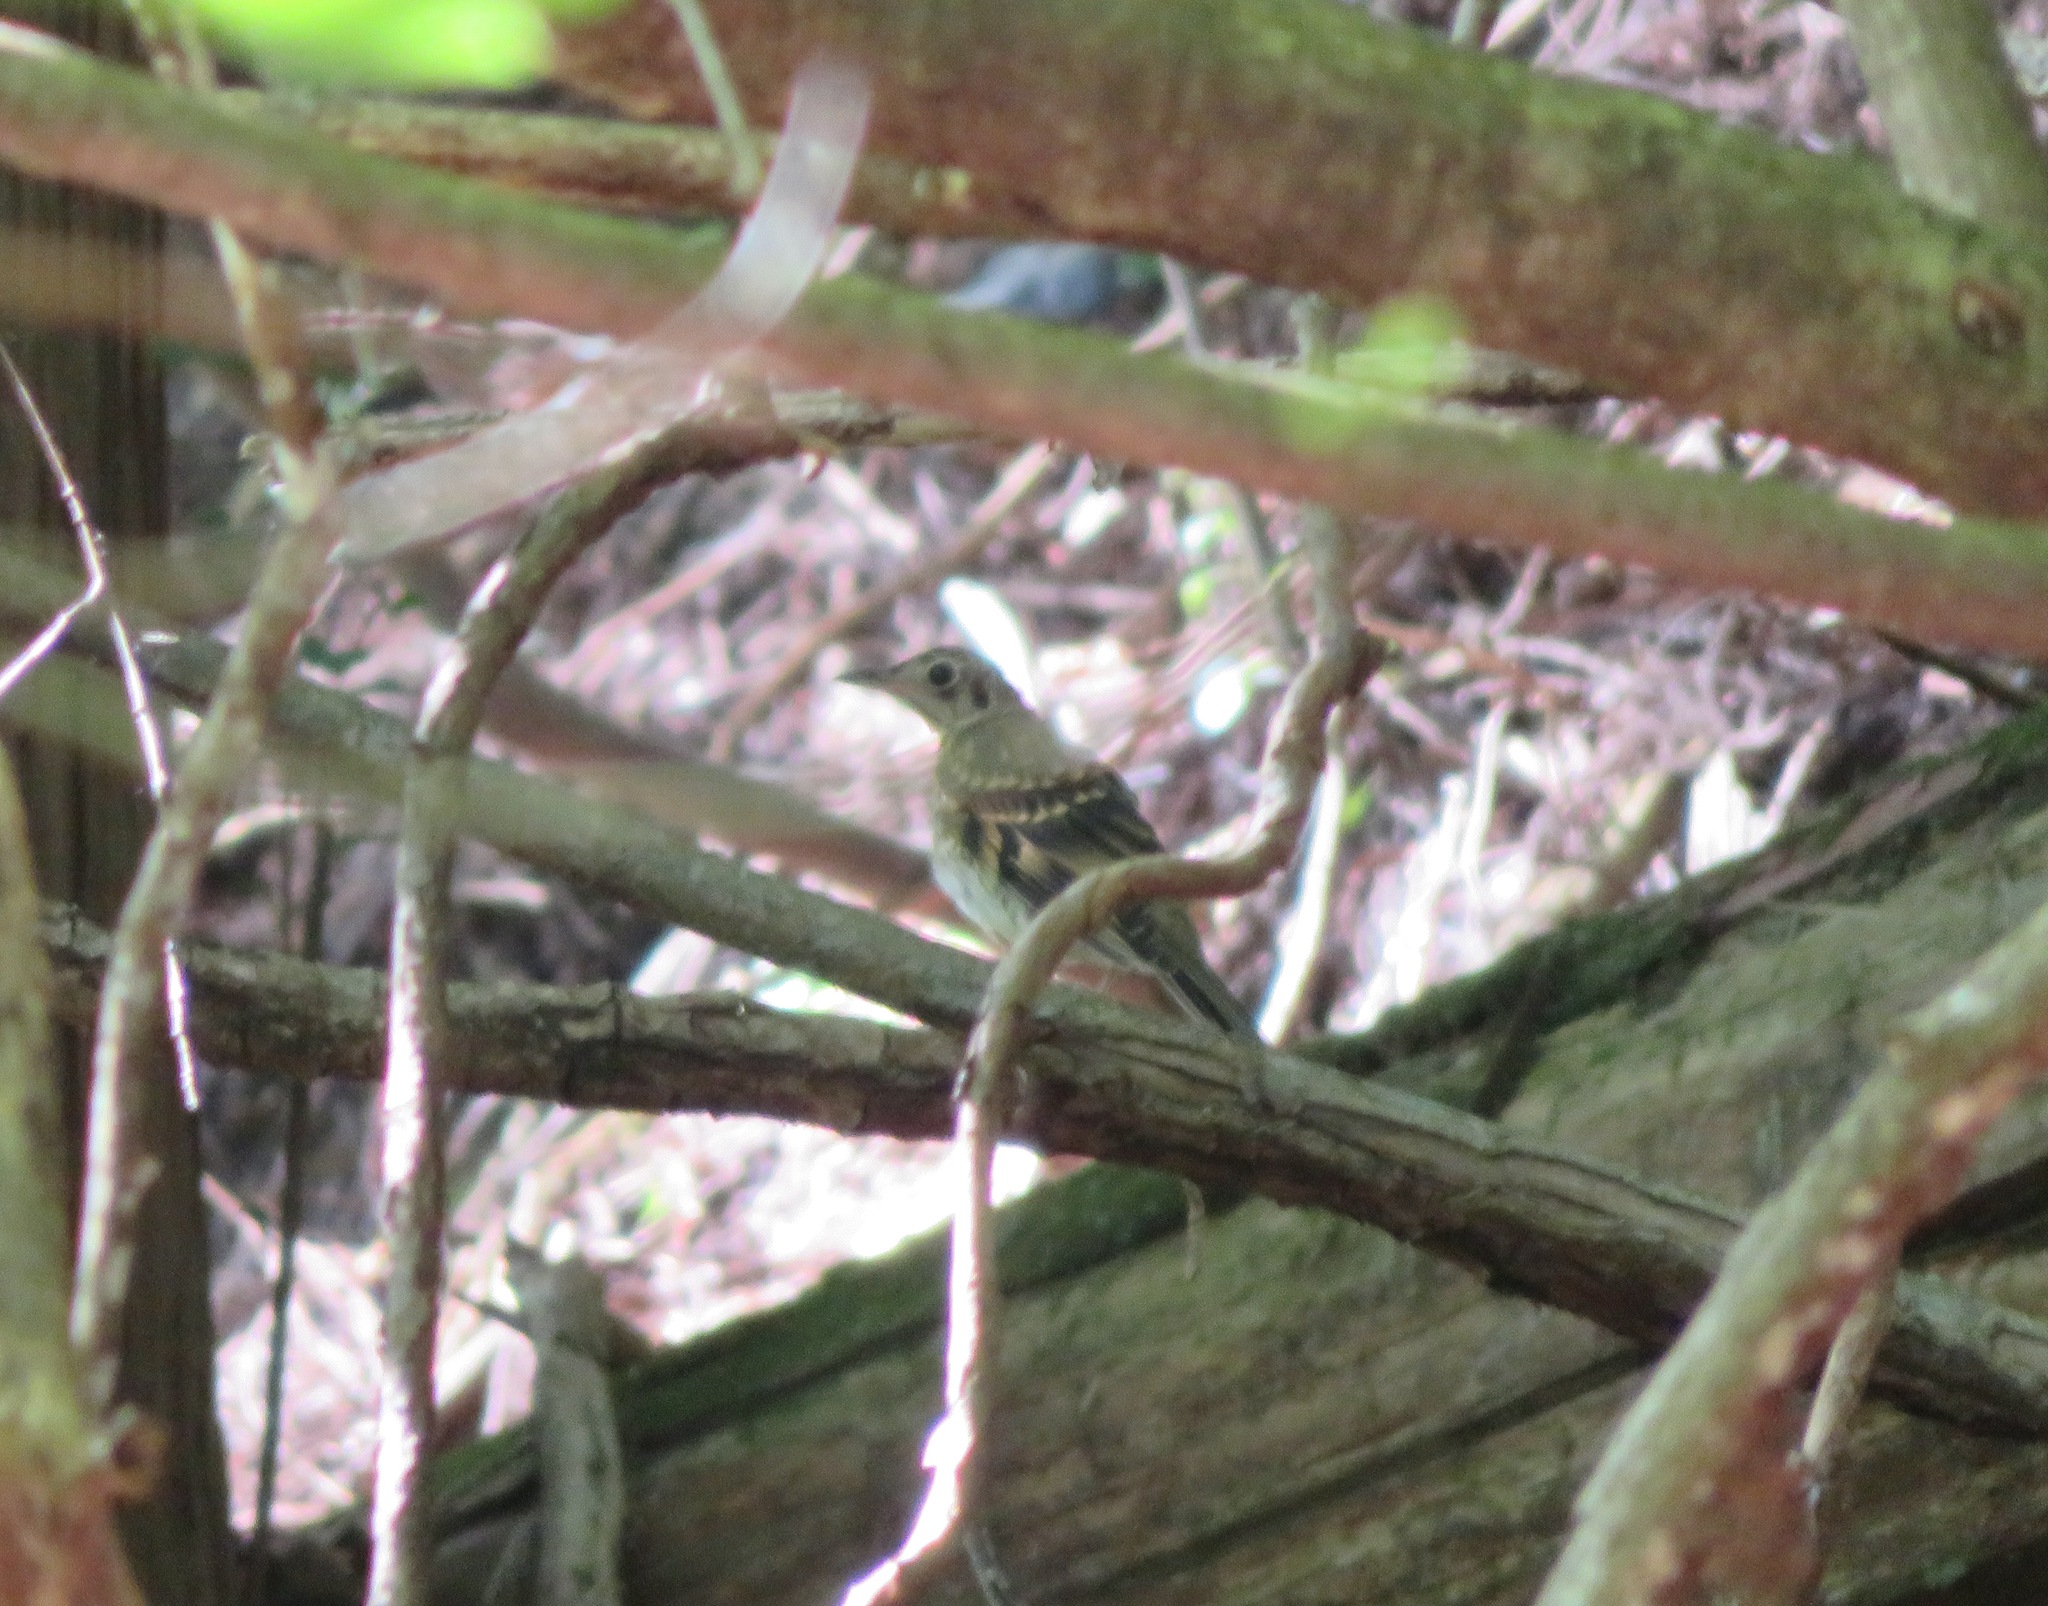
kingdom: Animalia
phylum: Chordata
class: Aves
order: Passeriformes
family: Turdidae
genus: Zoothera
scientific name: Zoothera aurea
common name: White's thrush
